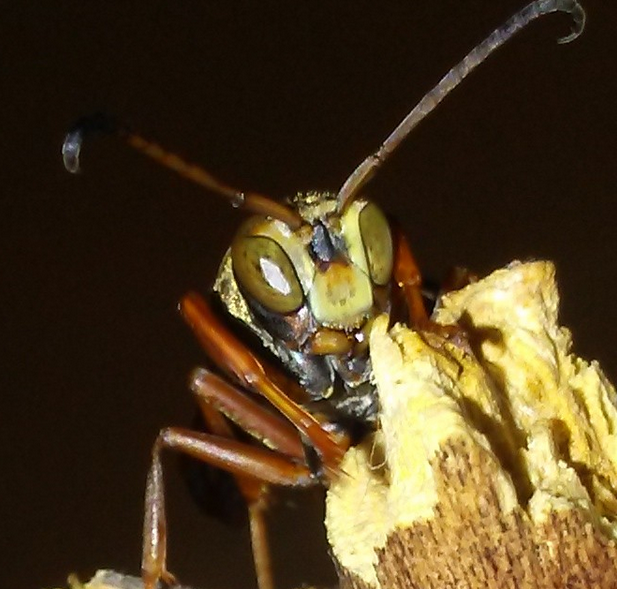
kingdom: Animalia
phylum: Arthropoda
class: Insecta
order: Hymenoptera
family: Eumenidae
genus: Polistes
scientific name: Polistes fuscatus
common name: Dark paper wasp
